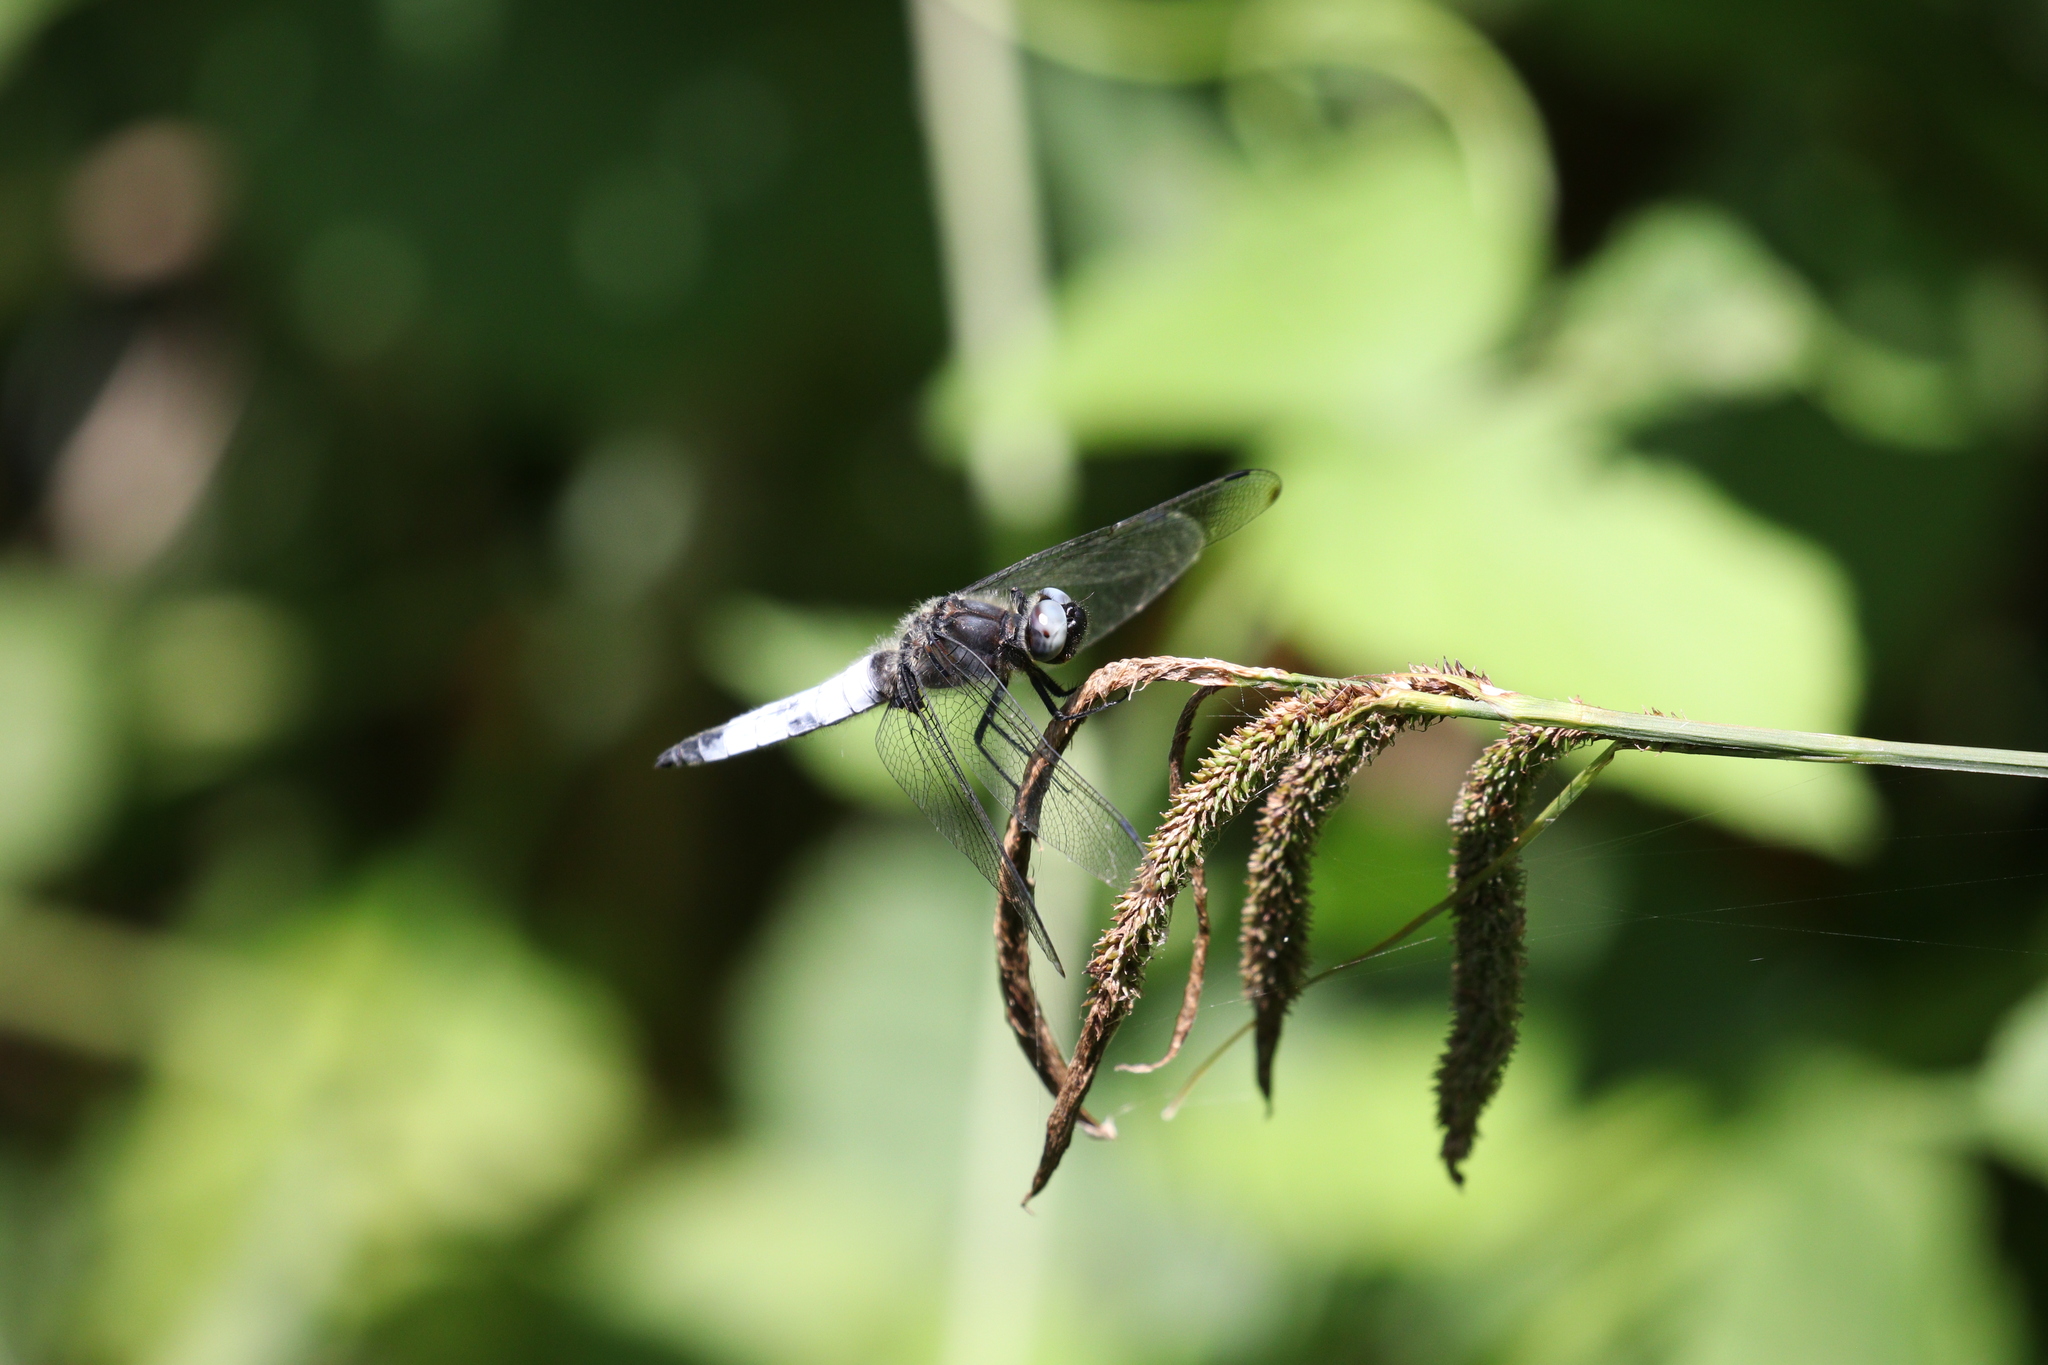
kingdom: Animalia
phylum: Arthropoda
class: Insecta
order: Odonata
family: Libellulidae
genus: Libellula
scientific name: Libellula fulva
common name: Blue chaser
